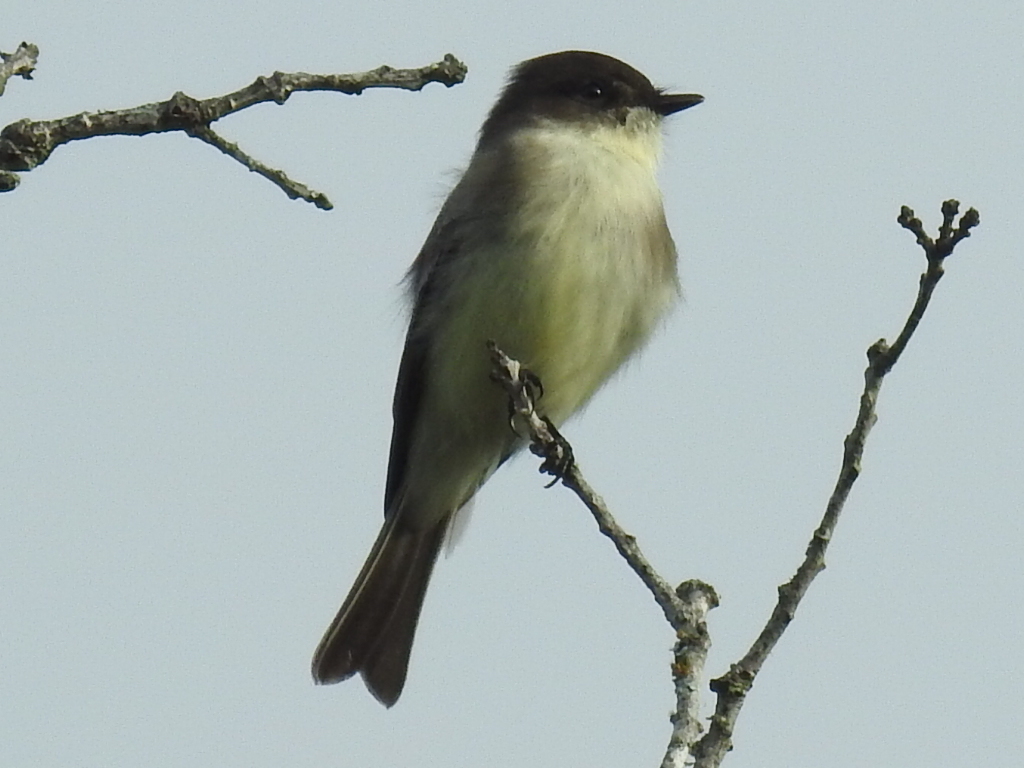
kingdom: Animalia
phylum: Chordata
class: Aves
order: Passeriformes
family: Tyrannidae
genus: Sayornis
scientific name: Sayornis phoebe
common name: Eastern phoebe
